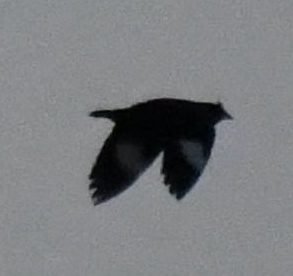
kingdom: Animalia
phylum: Chordata
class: Aves
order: Passeriformes
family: Sturnidae
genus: Acridotheres
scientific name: Acridotheres cristatellus
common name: Crested myna
